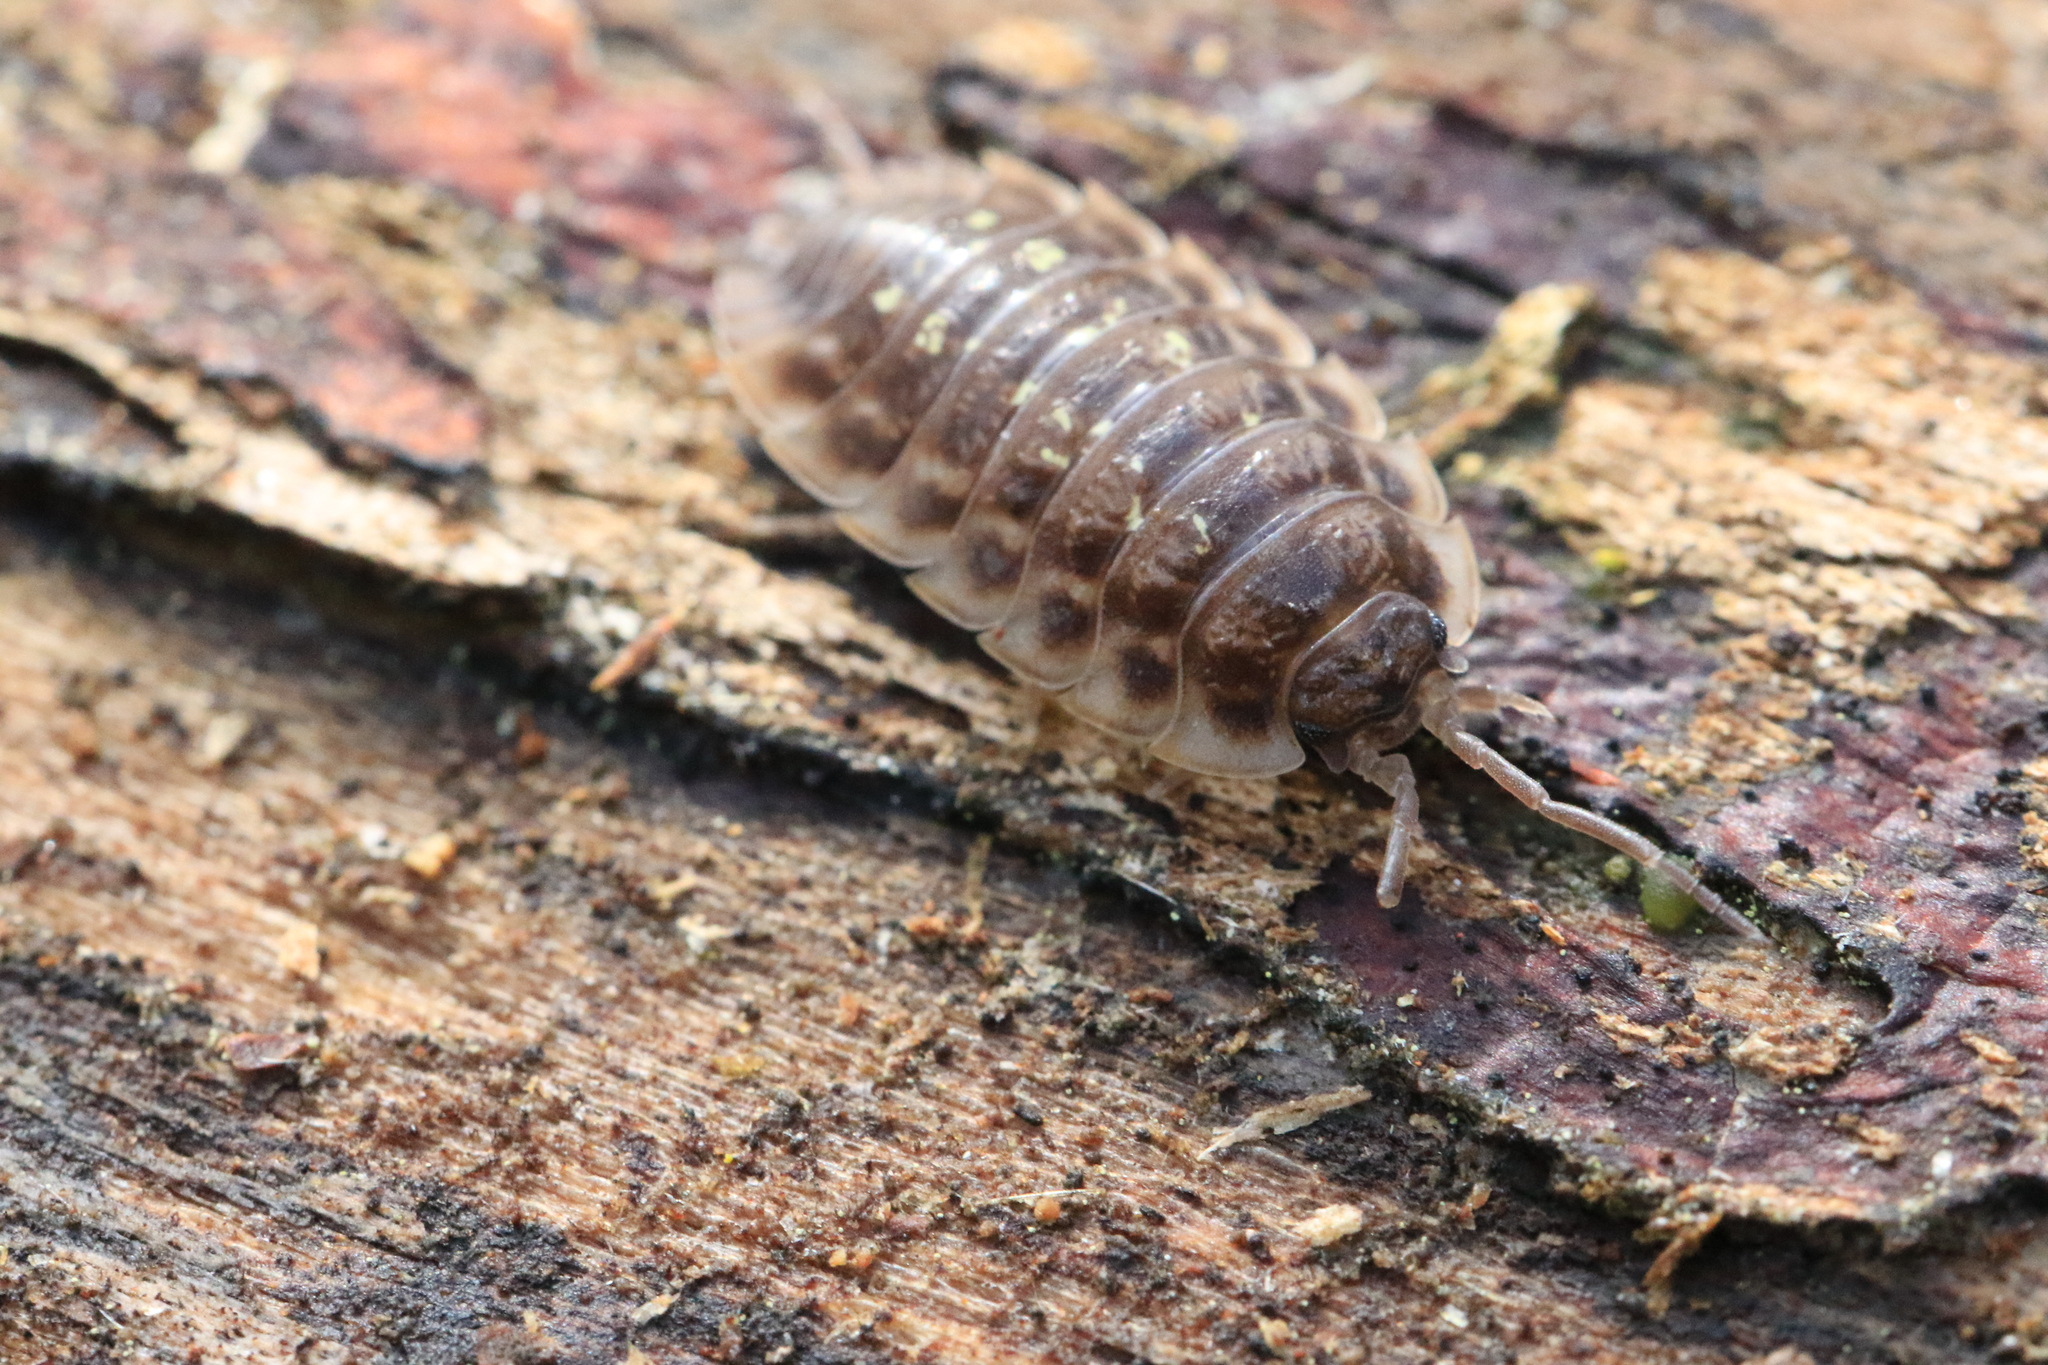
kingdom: Animalia
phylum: Arthropoda
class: Malacostraca
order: Isopoda
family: Oniscidae
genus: Oniscus
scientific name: Oniscus asellus
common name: Common shiny woodlouse
